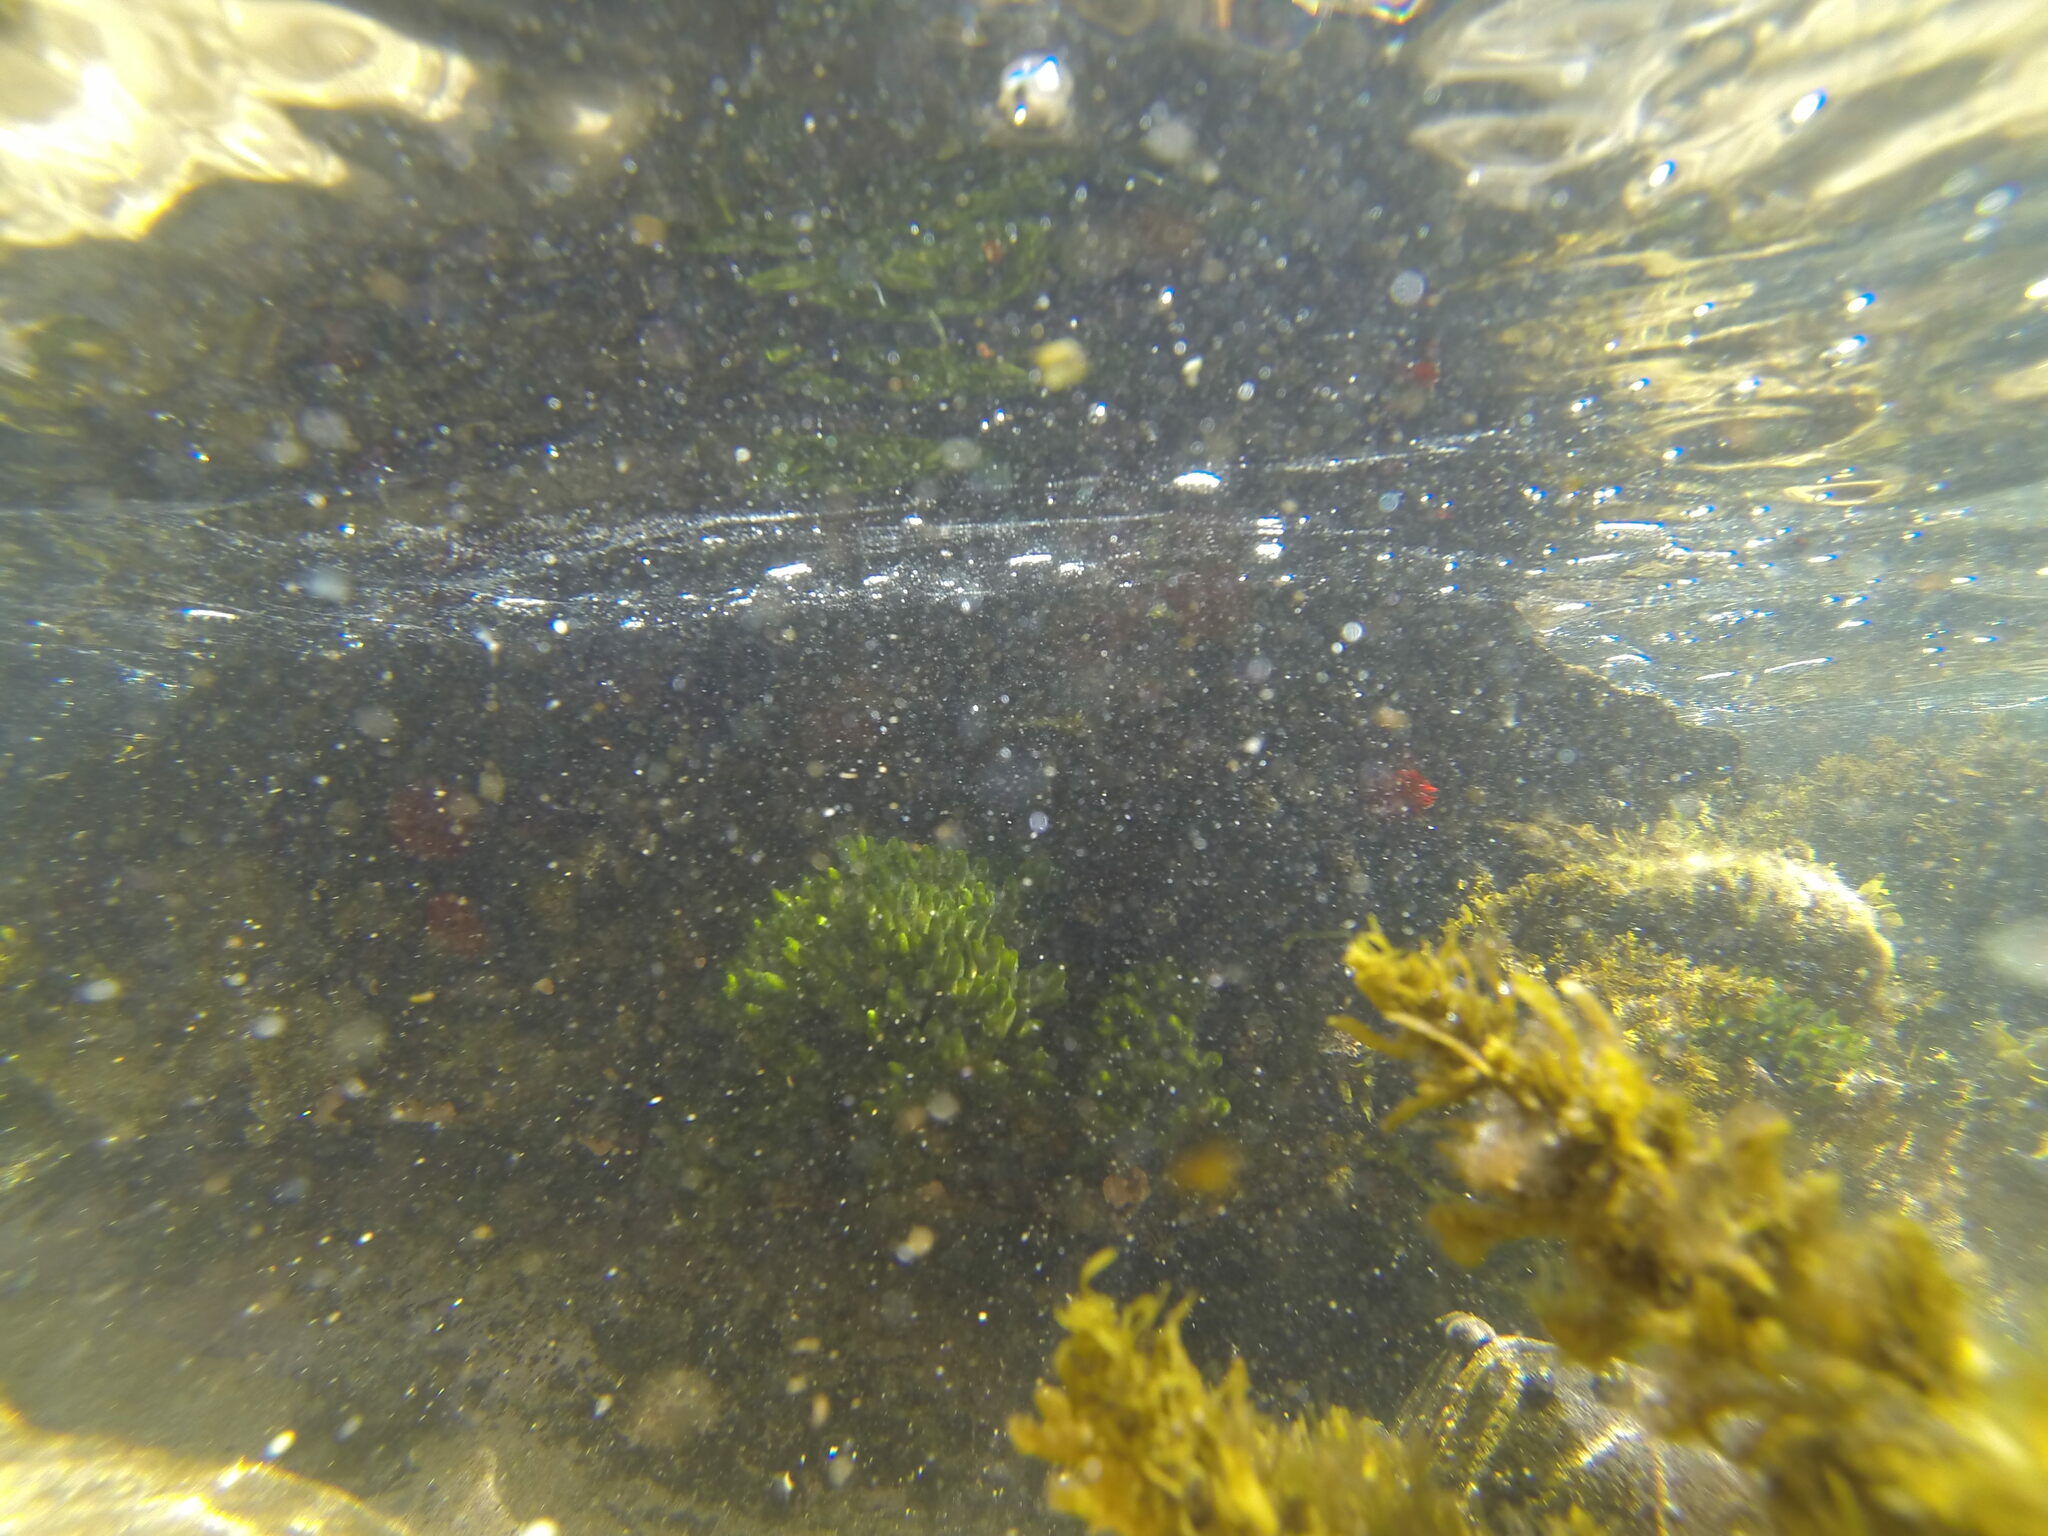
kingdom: Animalia
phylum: Cnidaria
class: Anthozoa
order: Actiniaria
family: Actiniidae
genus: Actinia
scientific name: Actinia tenebrosa
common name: Waratah anemone
